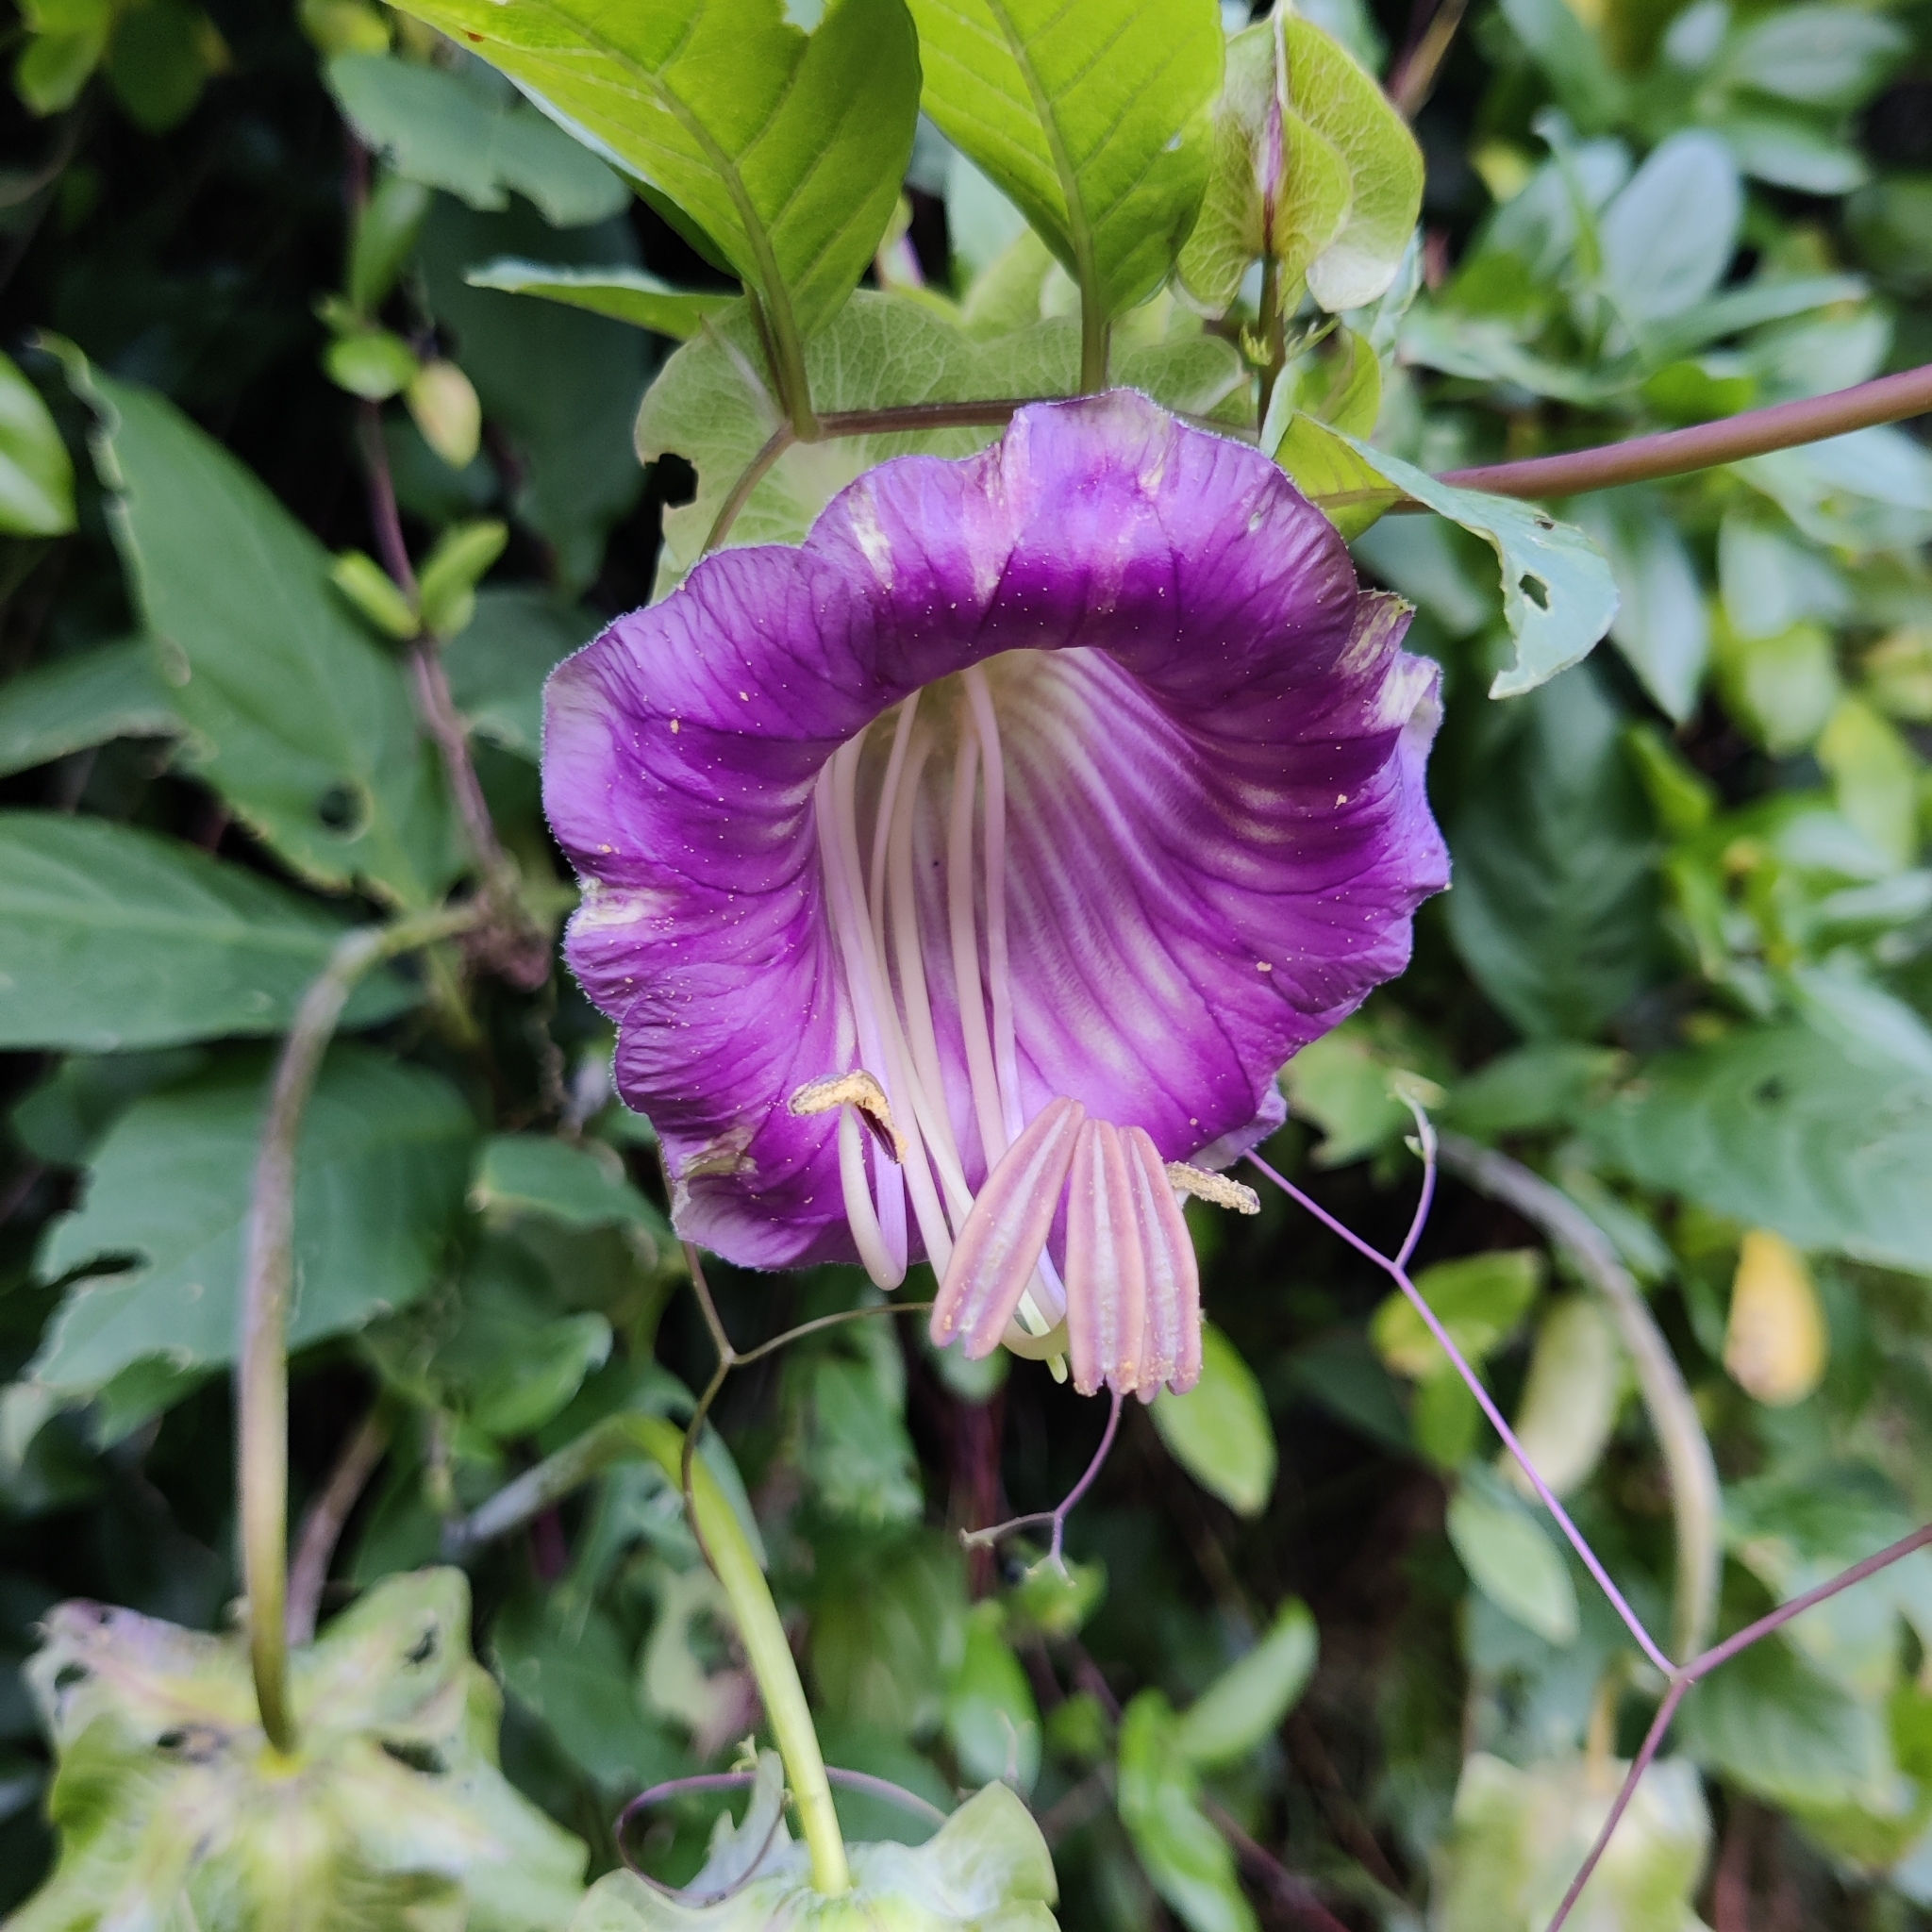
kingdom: Plantae
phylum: Tracheophyta
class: Magnoliopsida
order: Ericales
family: Polemoniaceae
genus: Cobaea
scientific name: Cobaea scandens
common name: Cup-and-saucer-vine
